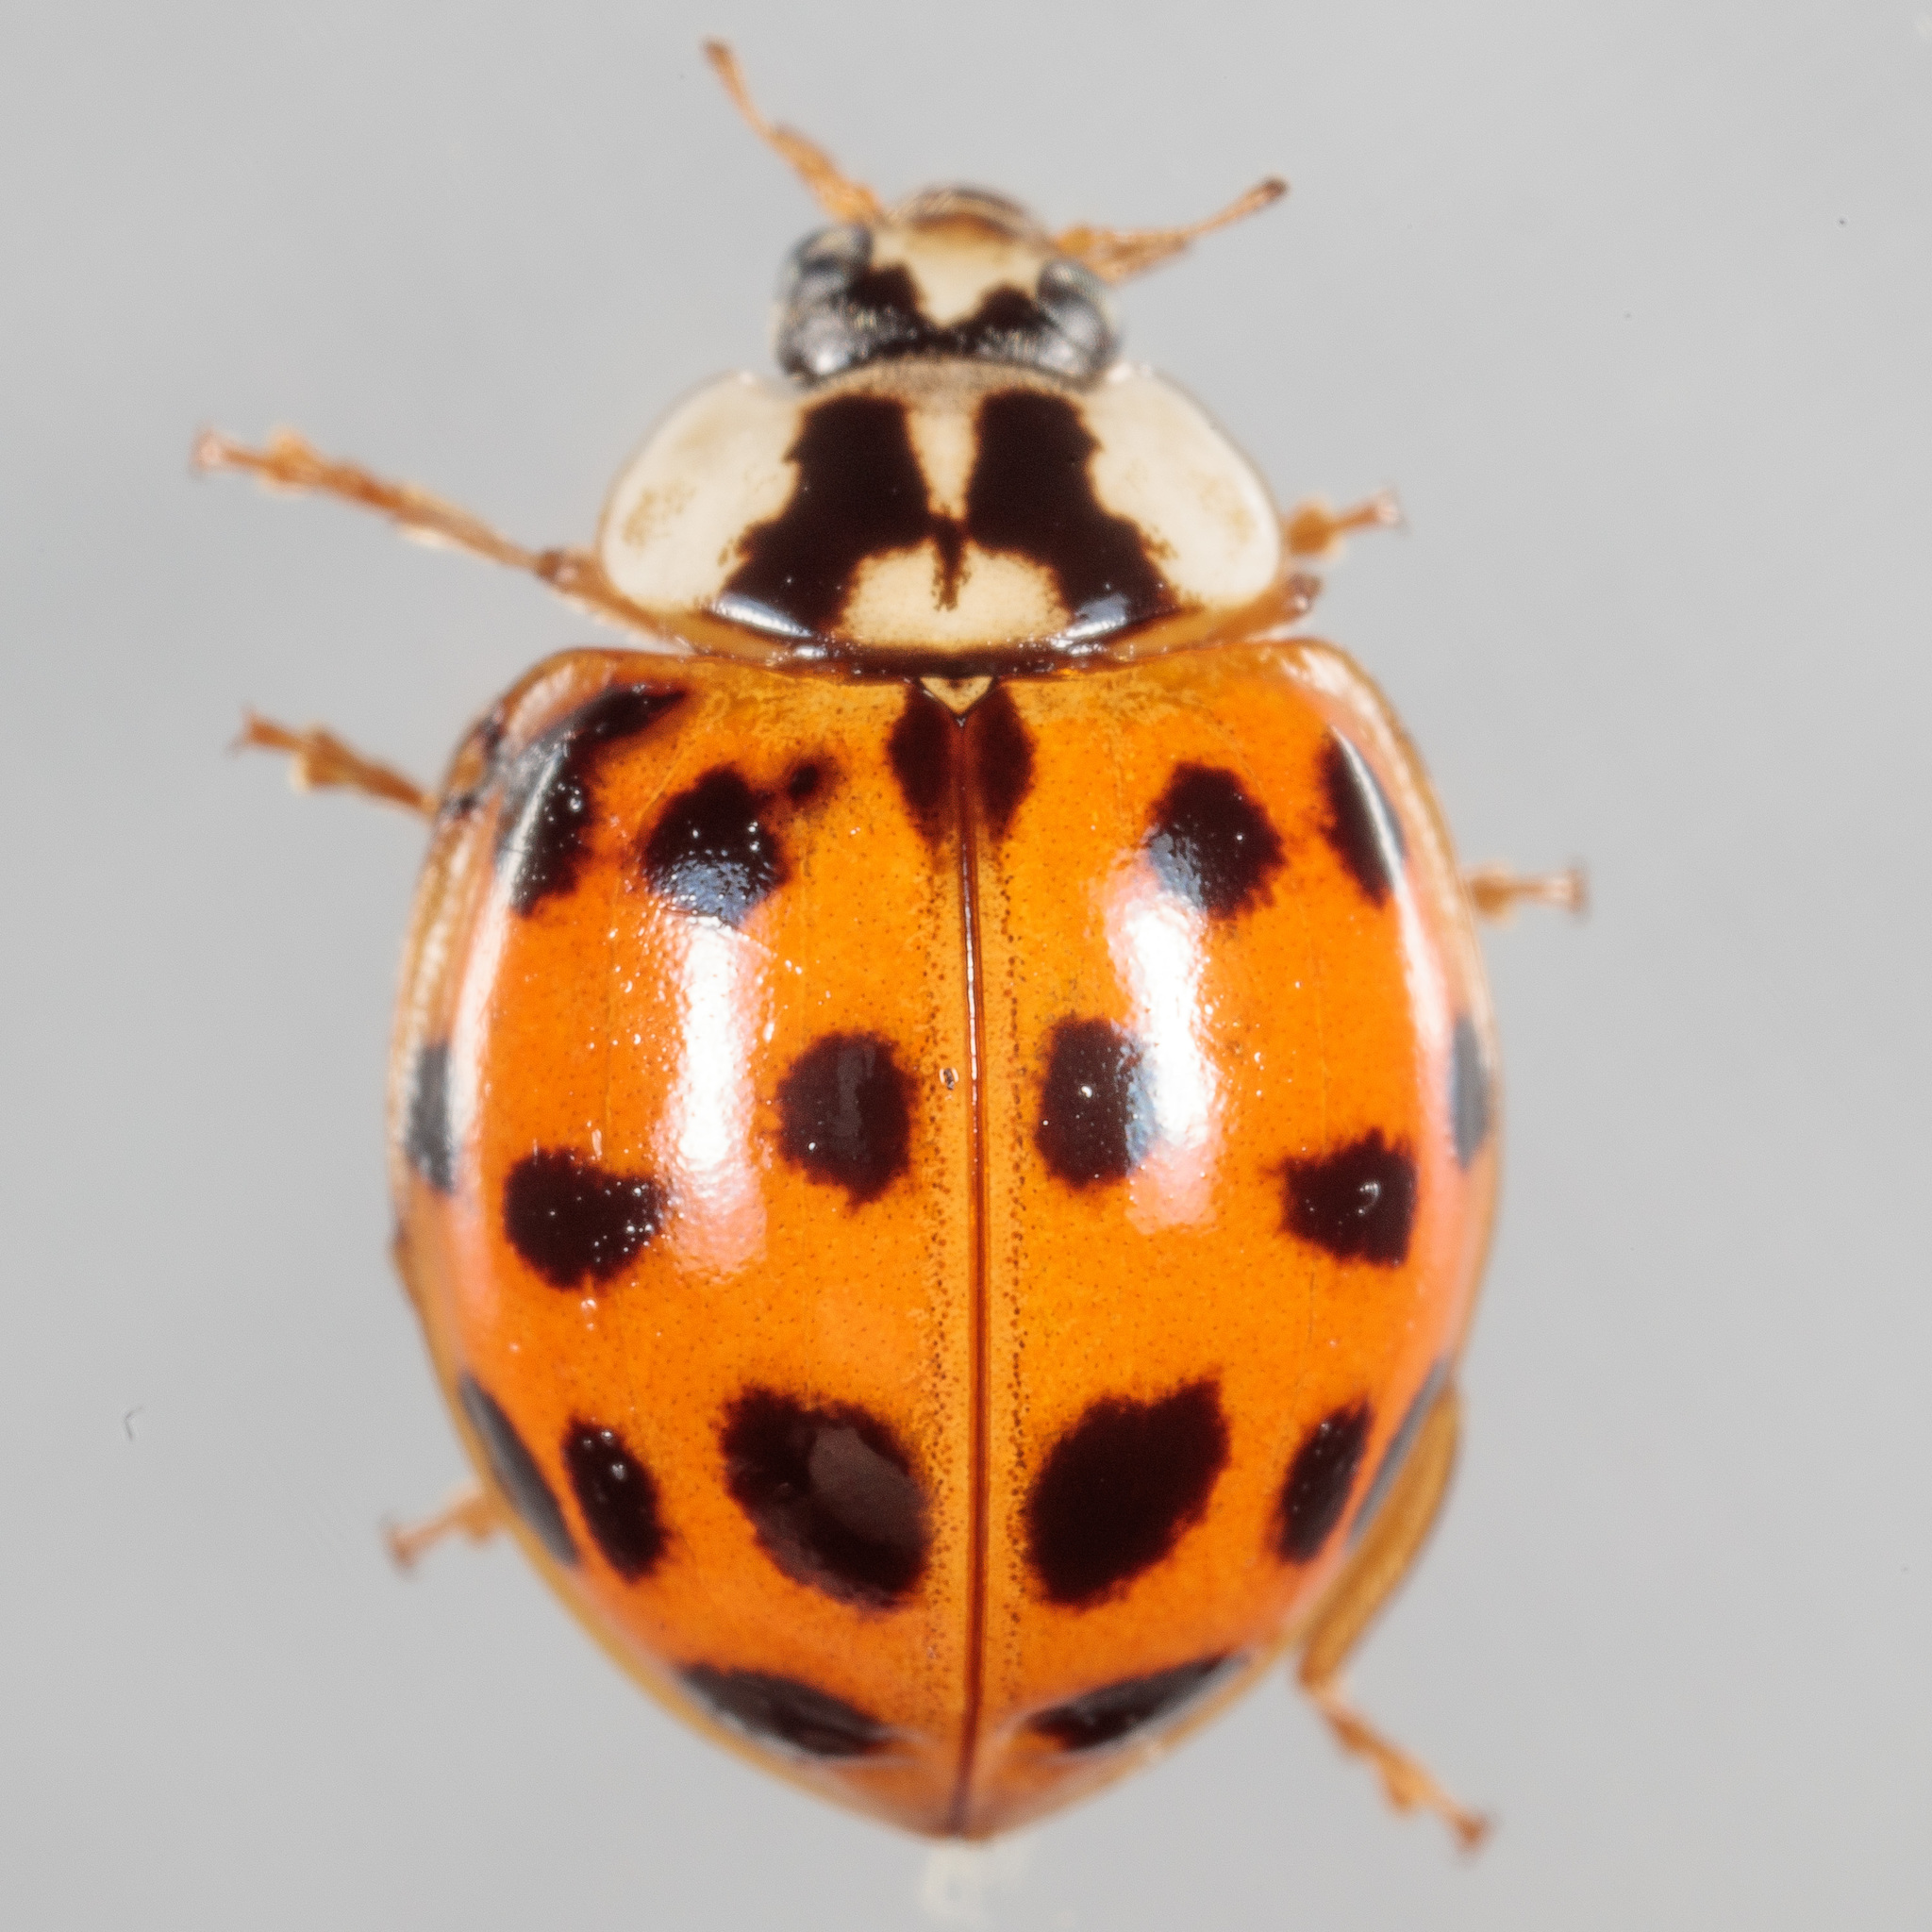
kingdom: Animalia
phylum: Arthropoda
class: Insecta
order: Coleoptera
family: Coccinellidae
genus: Harmonia
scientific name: Harmonia axyridis
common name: Harlequin ladybird
